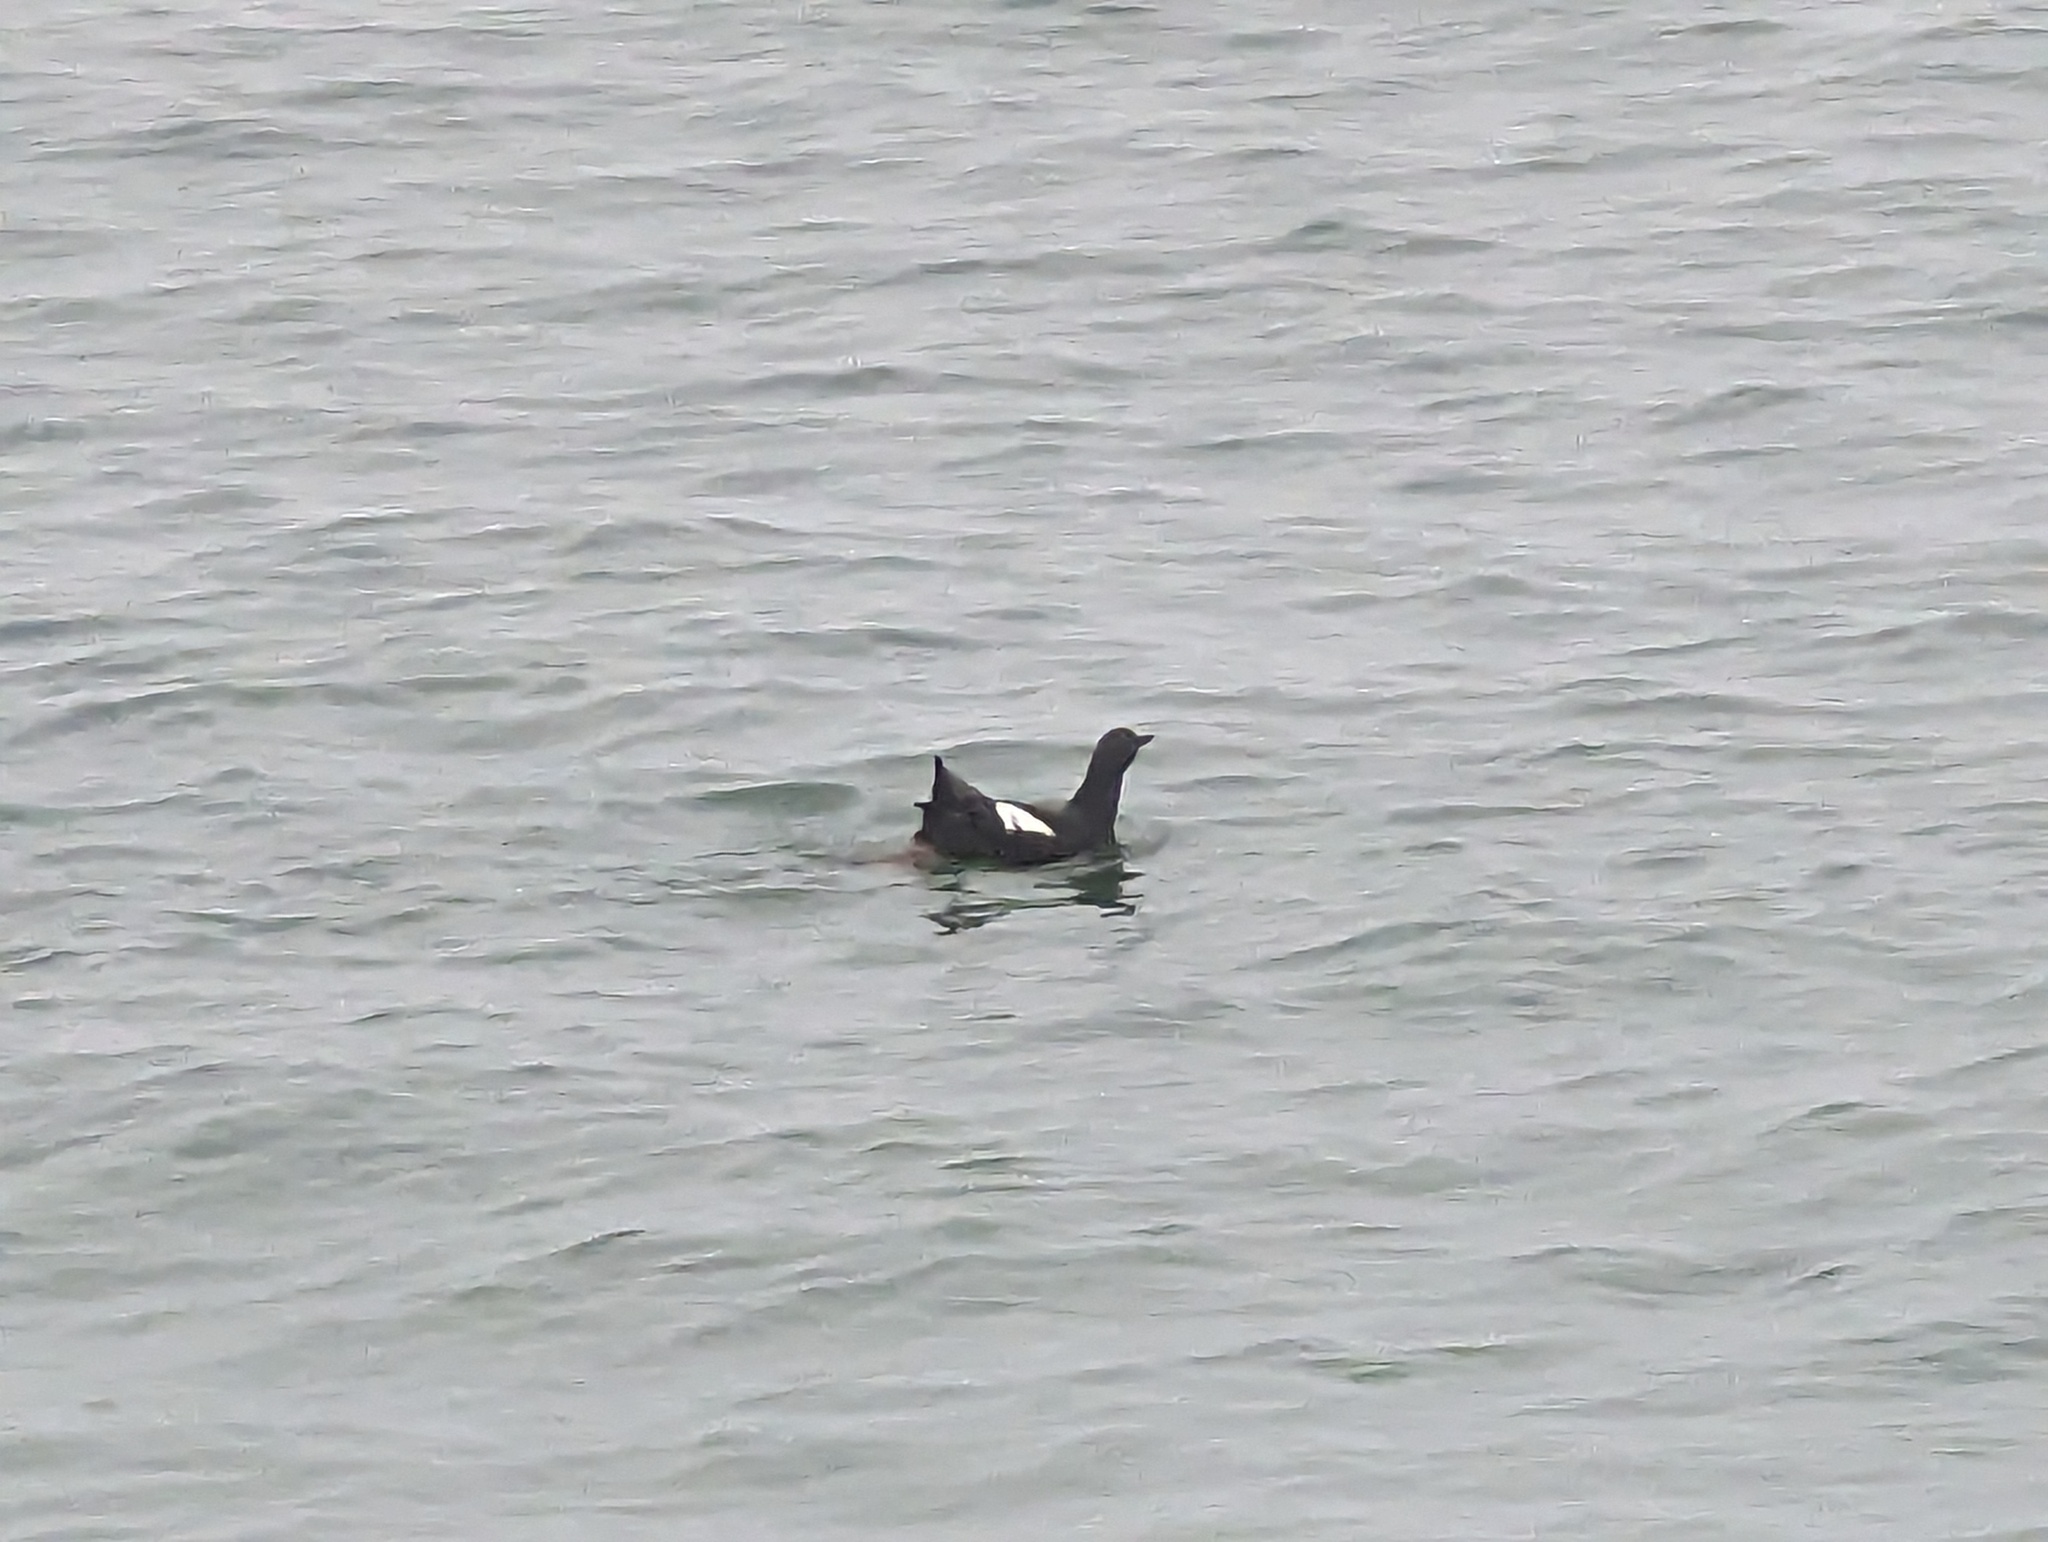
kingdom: Animalia
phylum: Chordata
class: Aves
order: Charadriiformes
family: Alcidae
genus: Cepphus
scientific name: Cepphus columba
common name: Pigeon guillemot
